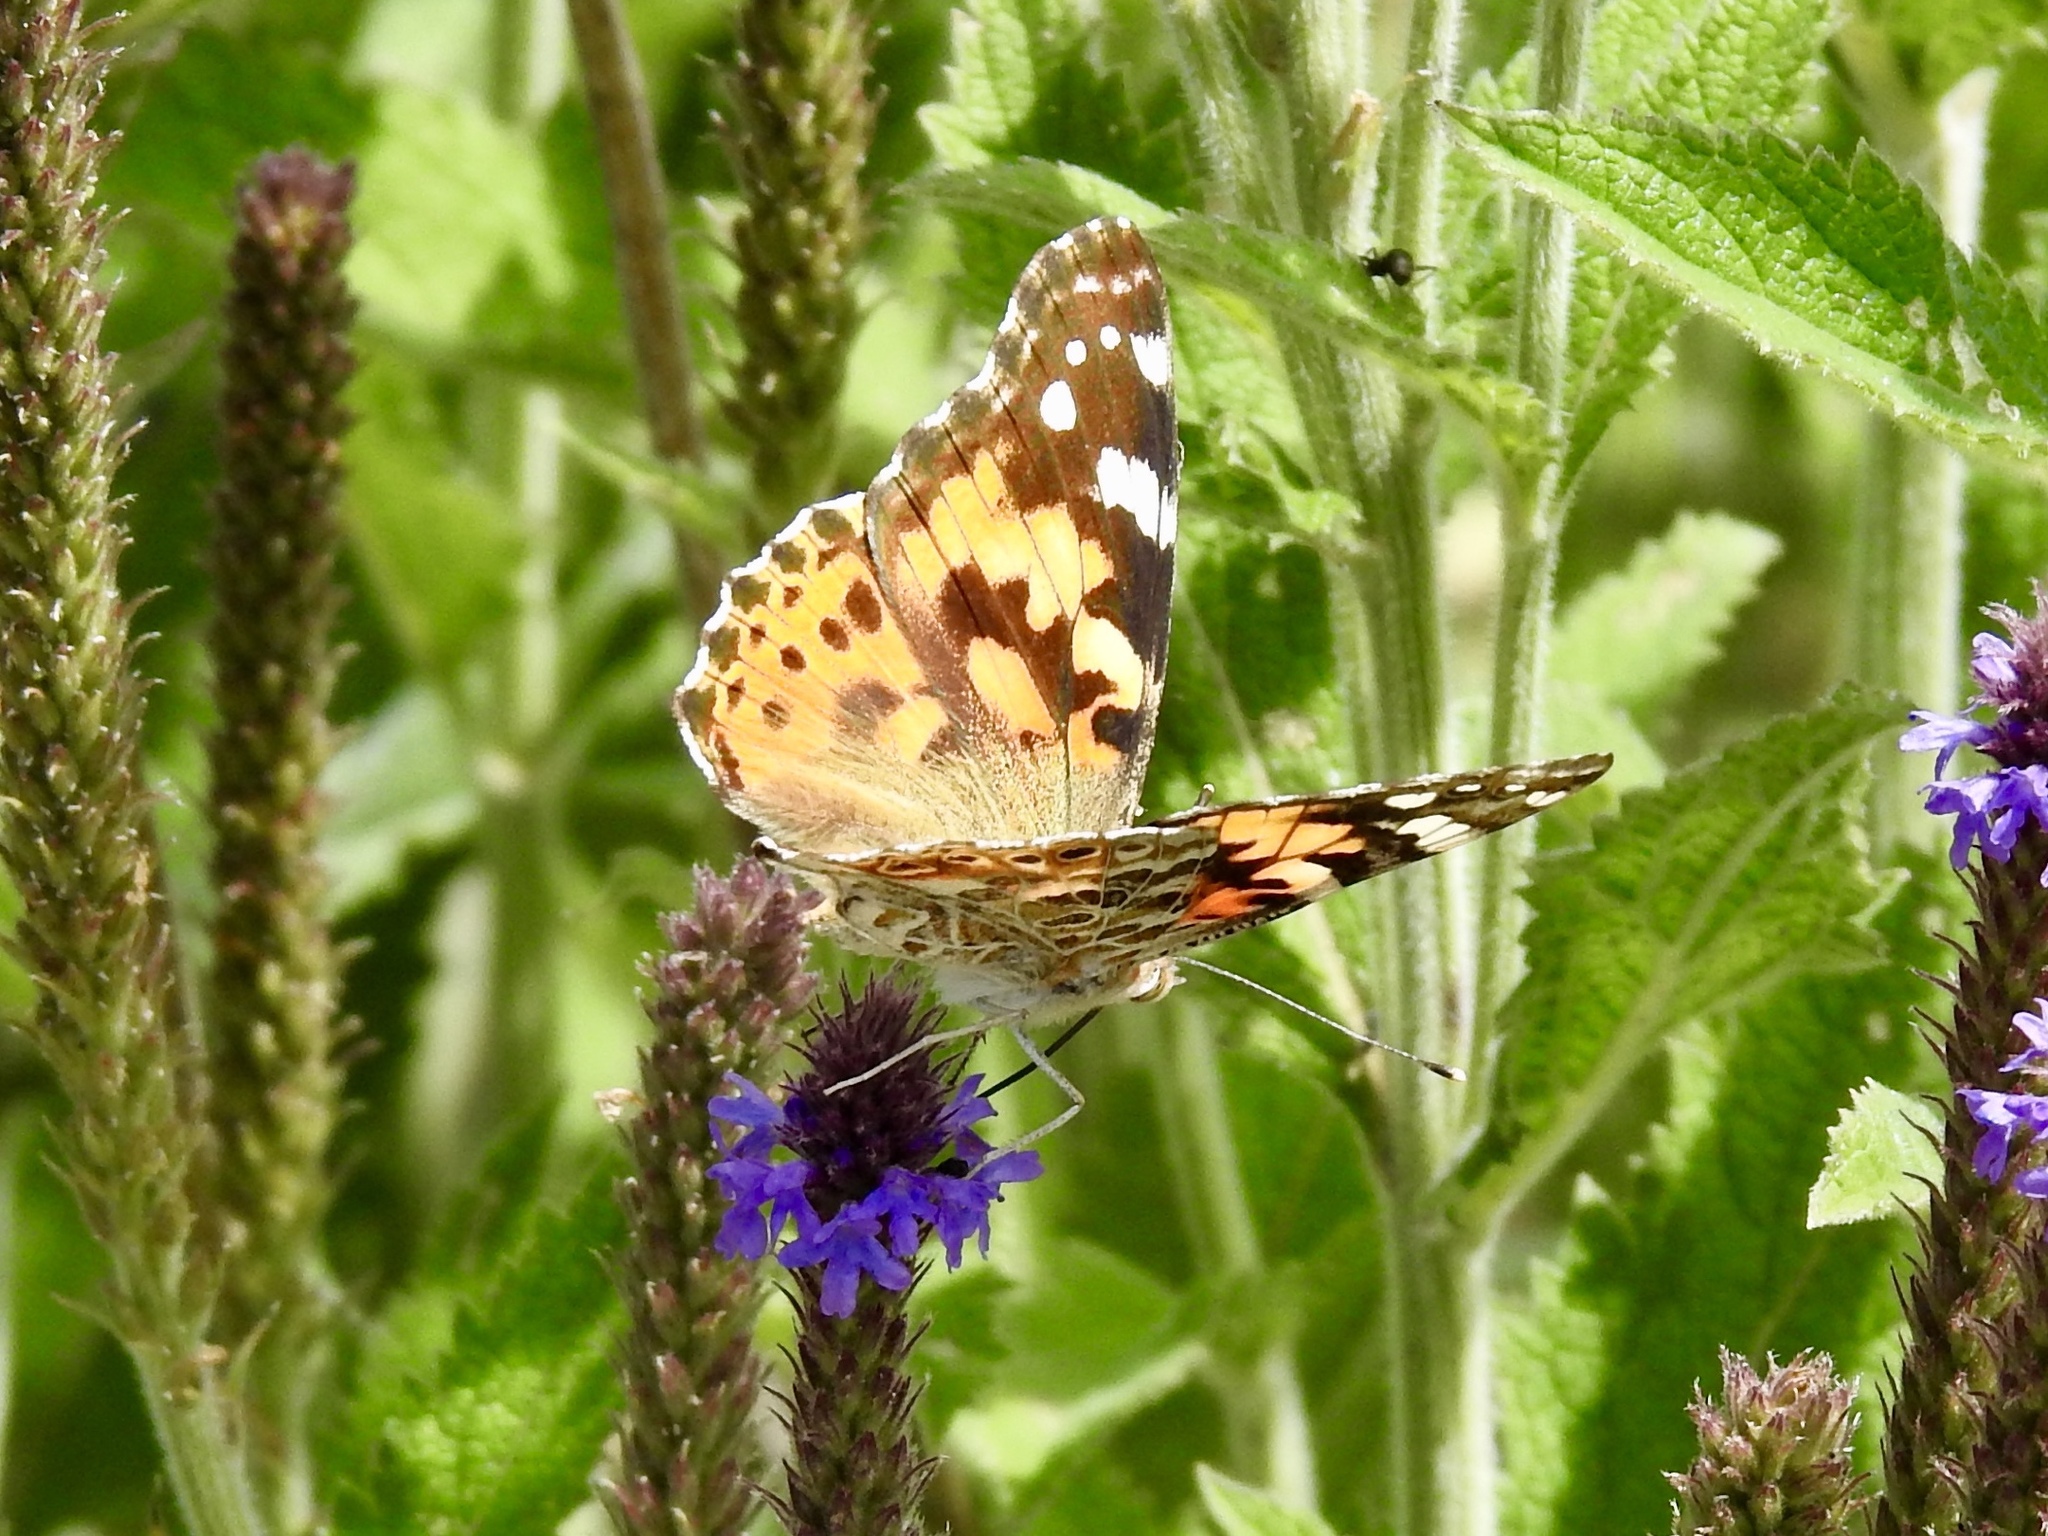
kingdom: Animalia
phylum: Arthropoda
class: Insecta
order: Lepidoptera
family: Nymphalidae
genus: Vanessa
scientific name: Vanessa cardui
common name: Painted lady
